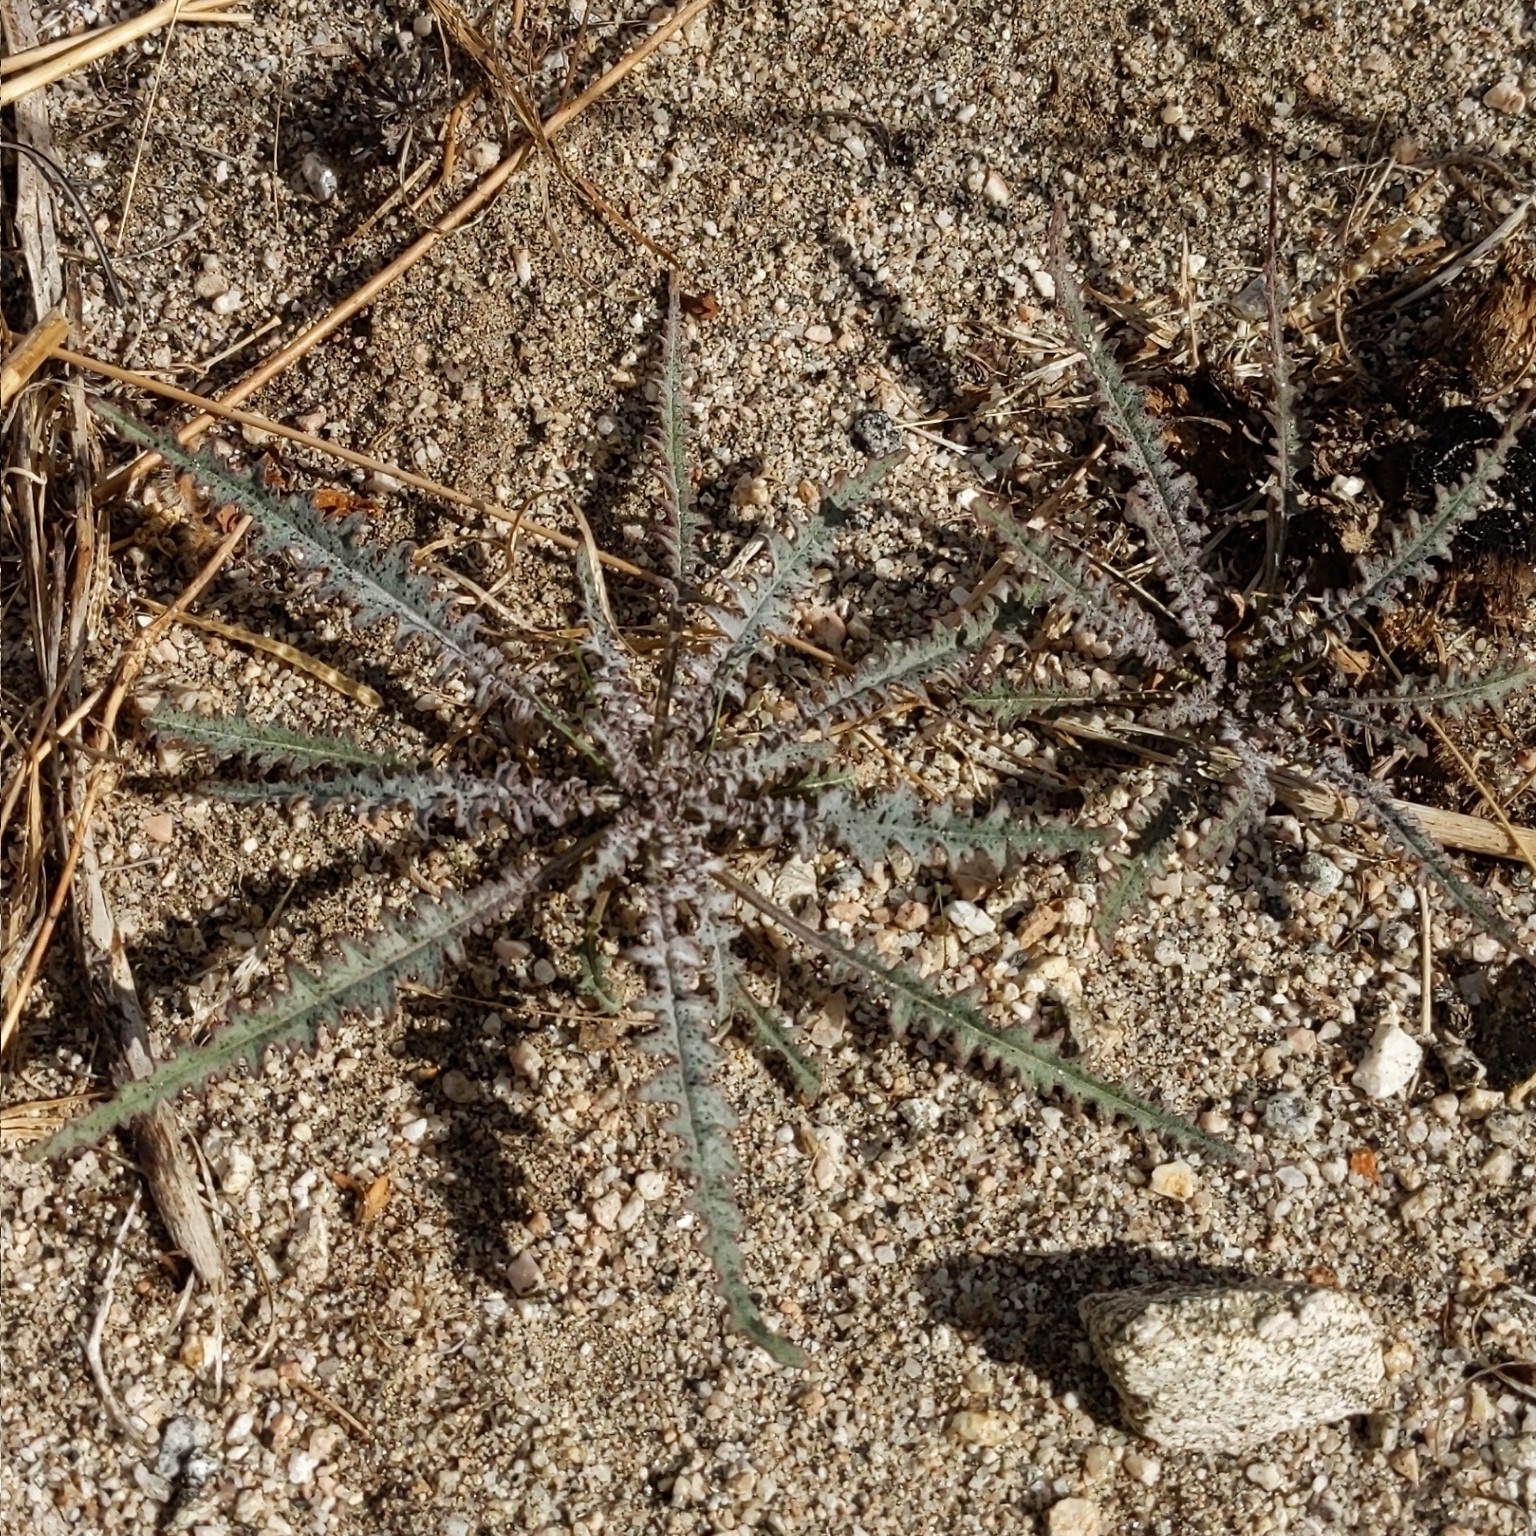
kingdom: Plantae
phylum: Tracheophyta
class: Magnoliopsida
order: Myrtales
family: Onagraceae
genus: Eulobus
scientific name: Eulobus californicus
